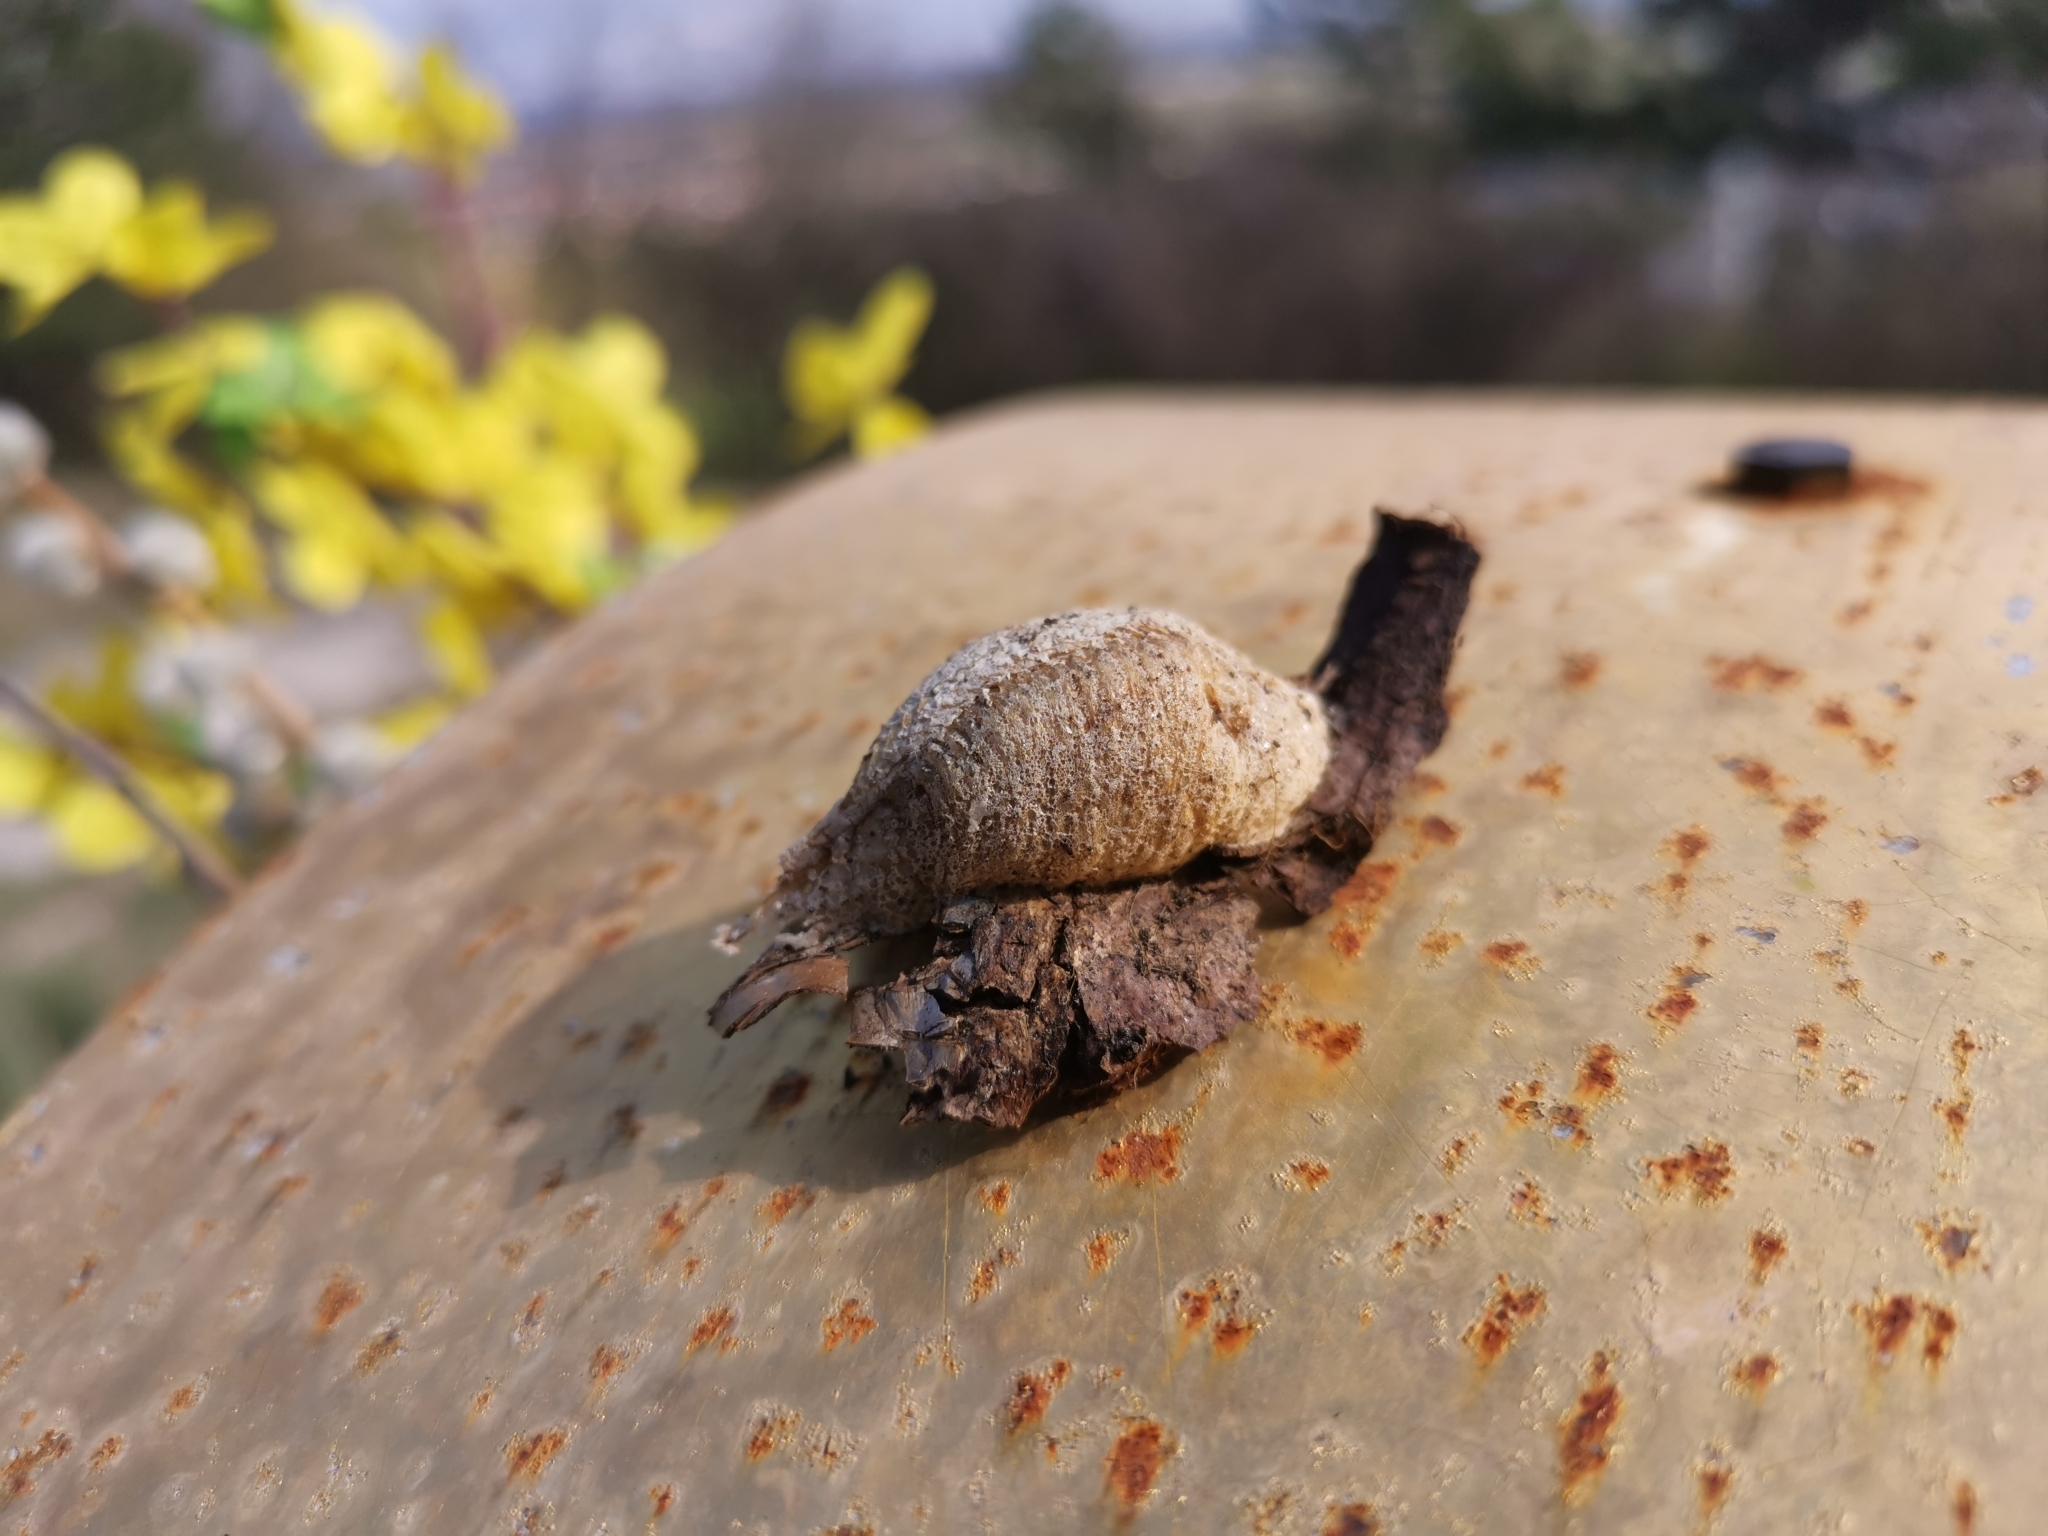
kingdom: Animalia
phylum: Arthropoda
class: Insecta
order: Mantodea
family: Mantidae
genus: Mantis
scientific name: Mantis religiosa
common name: Praying mantis
